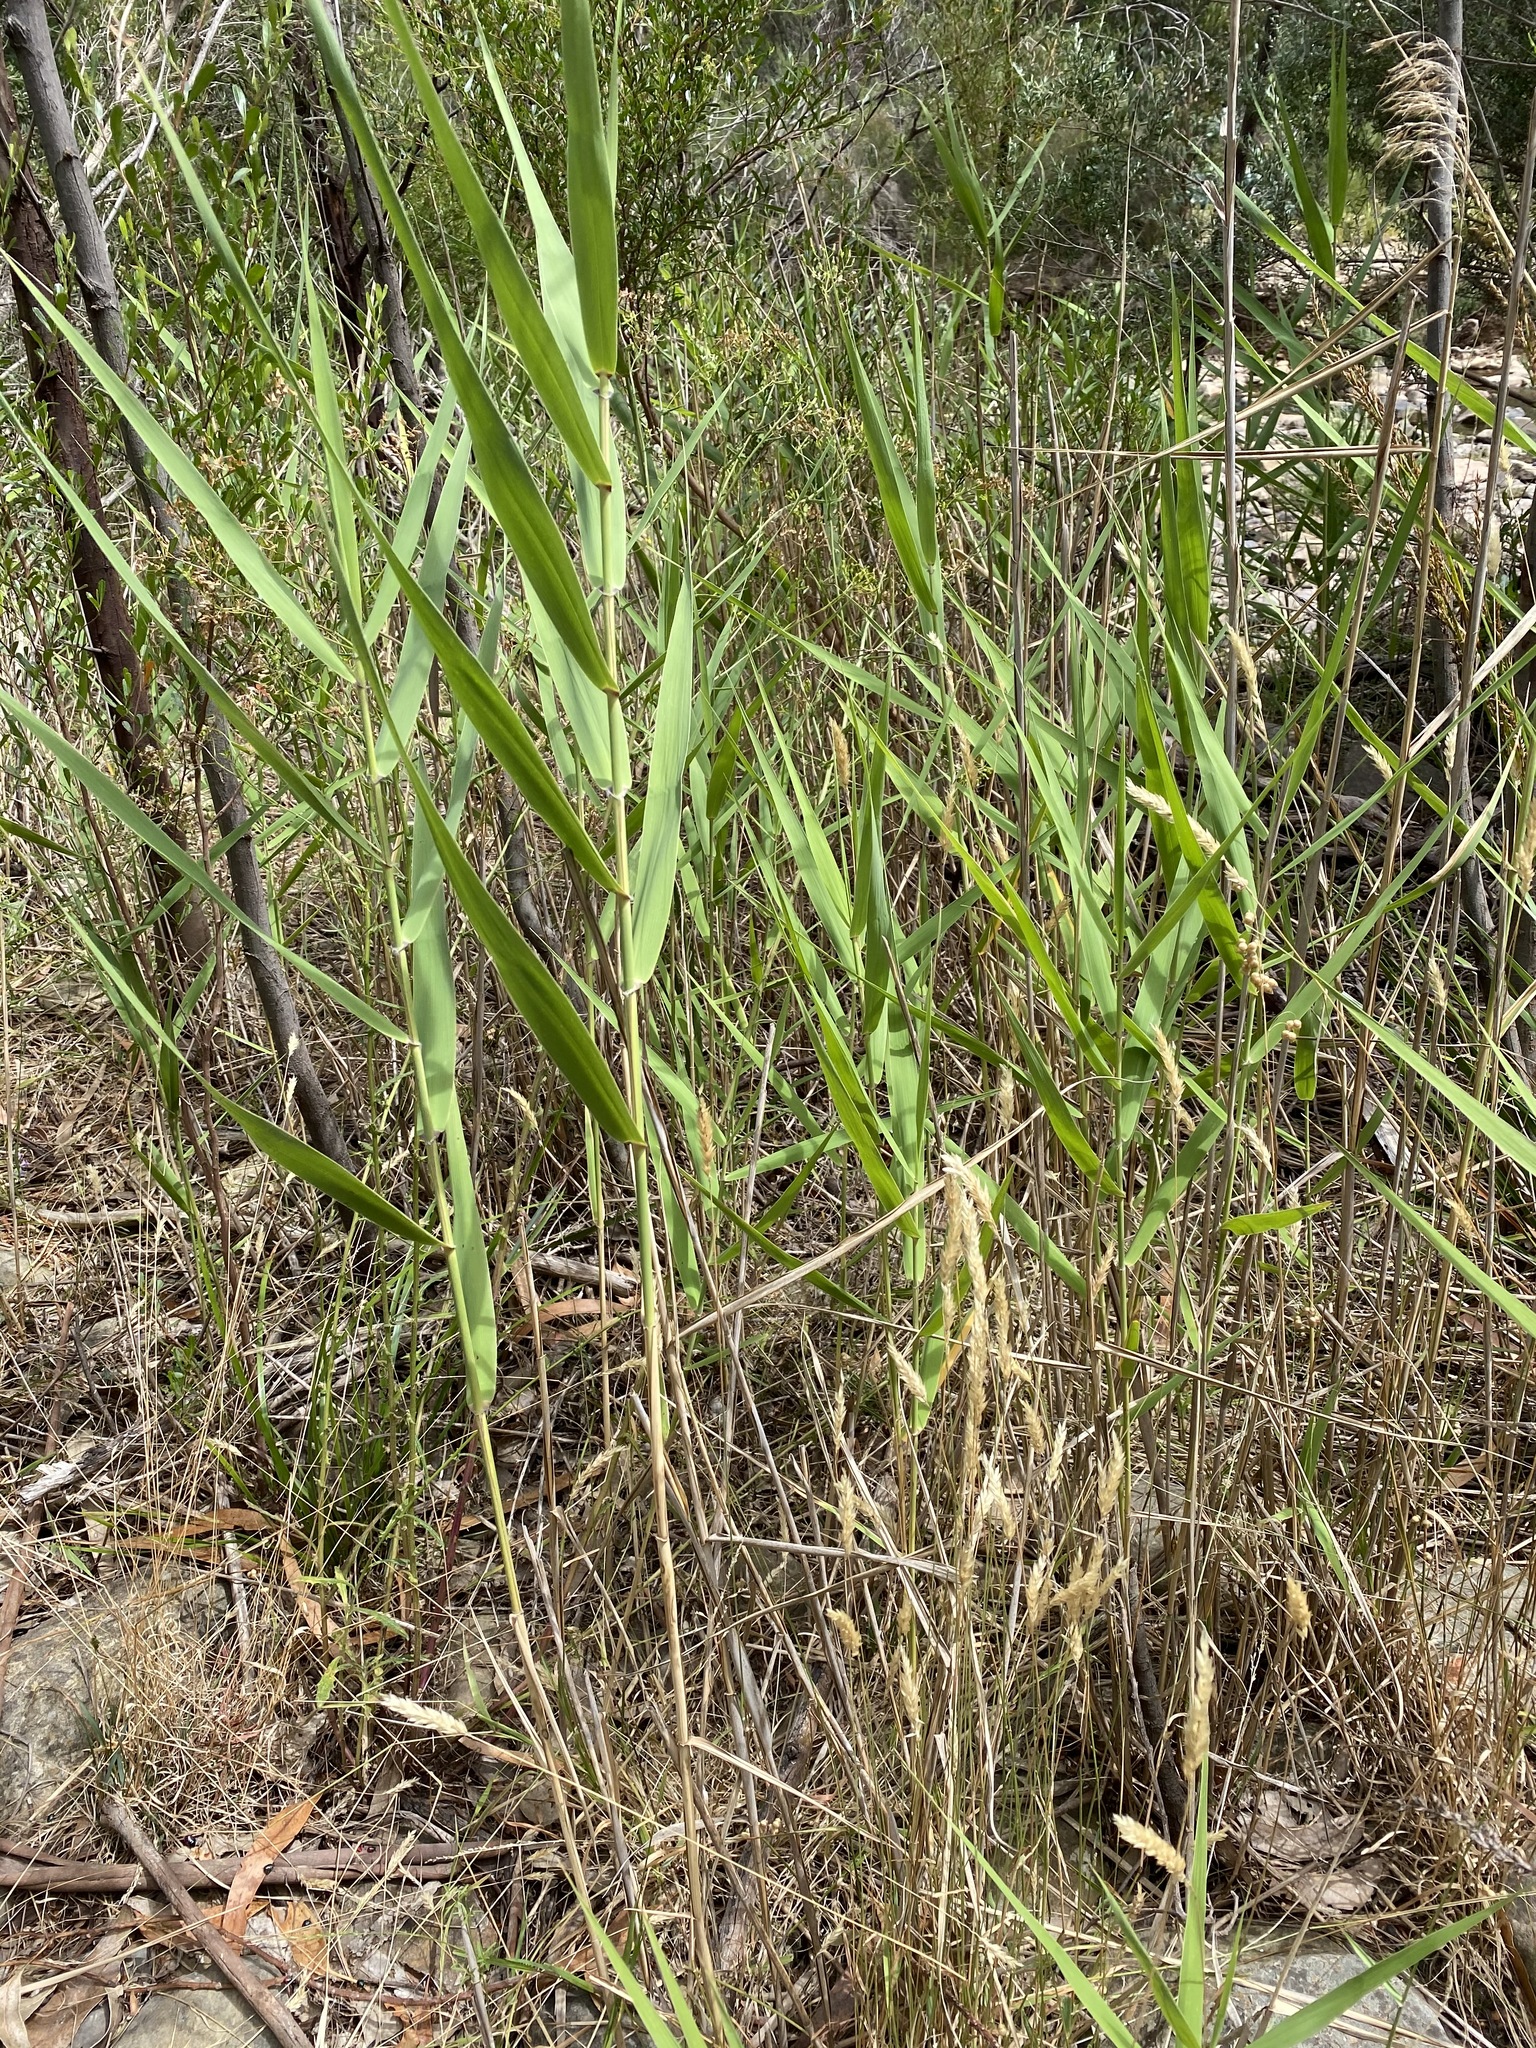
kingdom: Plantae
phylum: Tracheophyta
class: Liliopsida
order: Poales
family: Poaceae
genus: Phragmites
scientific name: Phragmites australis
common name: Common reed
